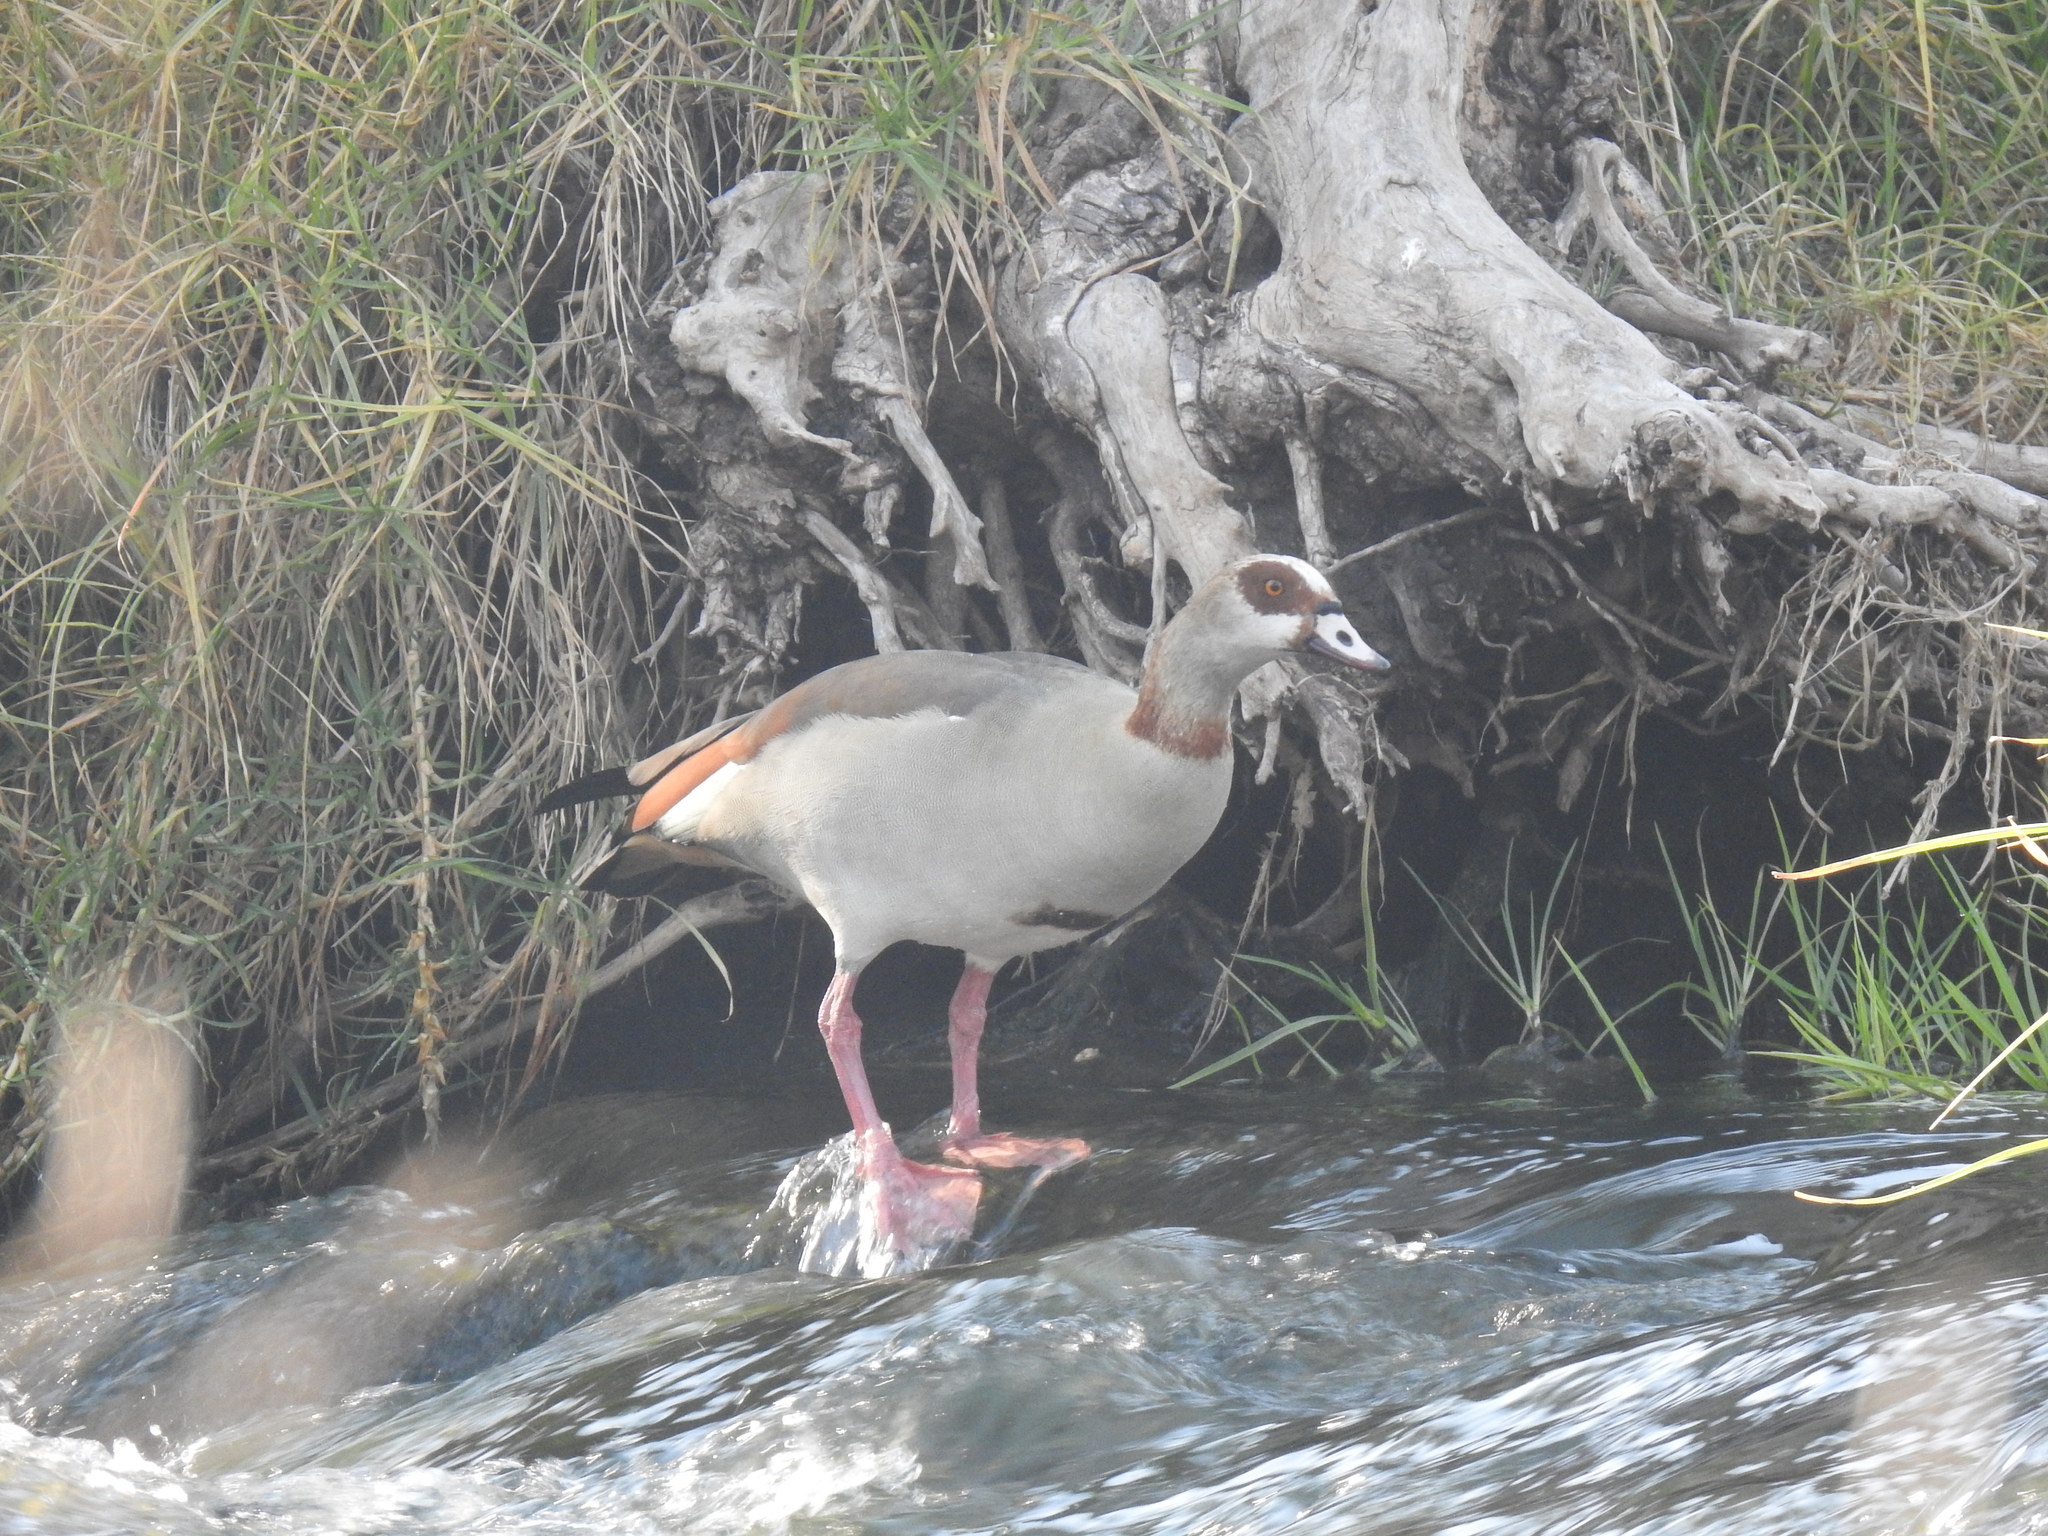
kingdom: Animalia
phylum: Chordata
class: Aves
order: Anseriformes
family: Anatidae
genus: Alopochen
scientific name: Alopochen aegyptiaca
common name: Egyptian goose
